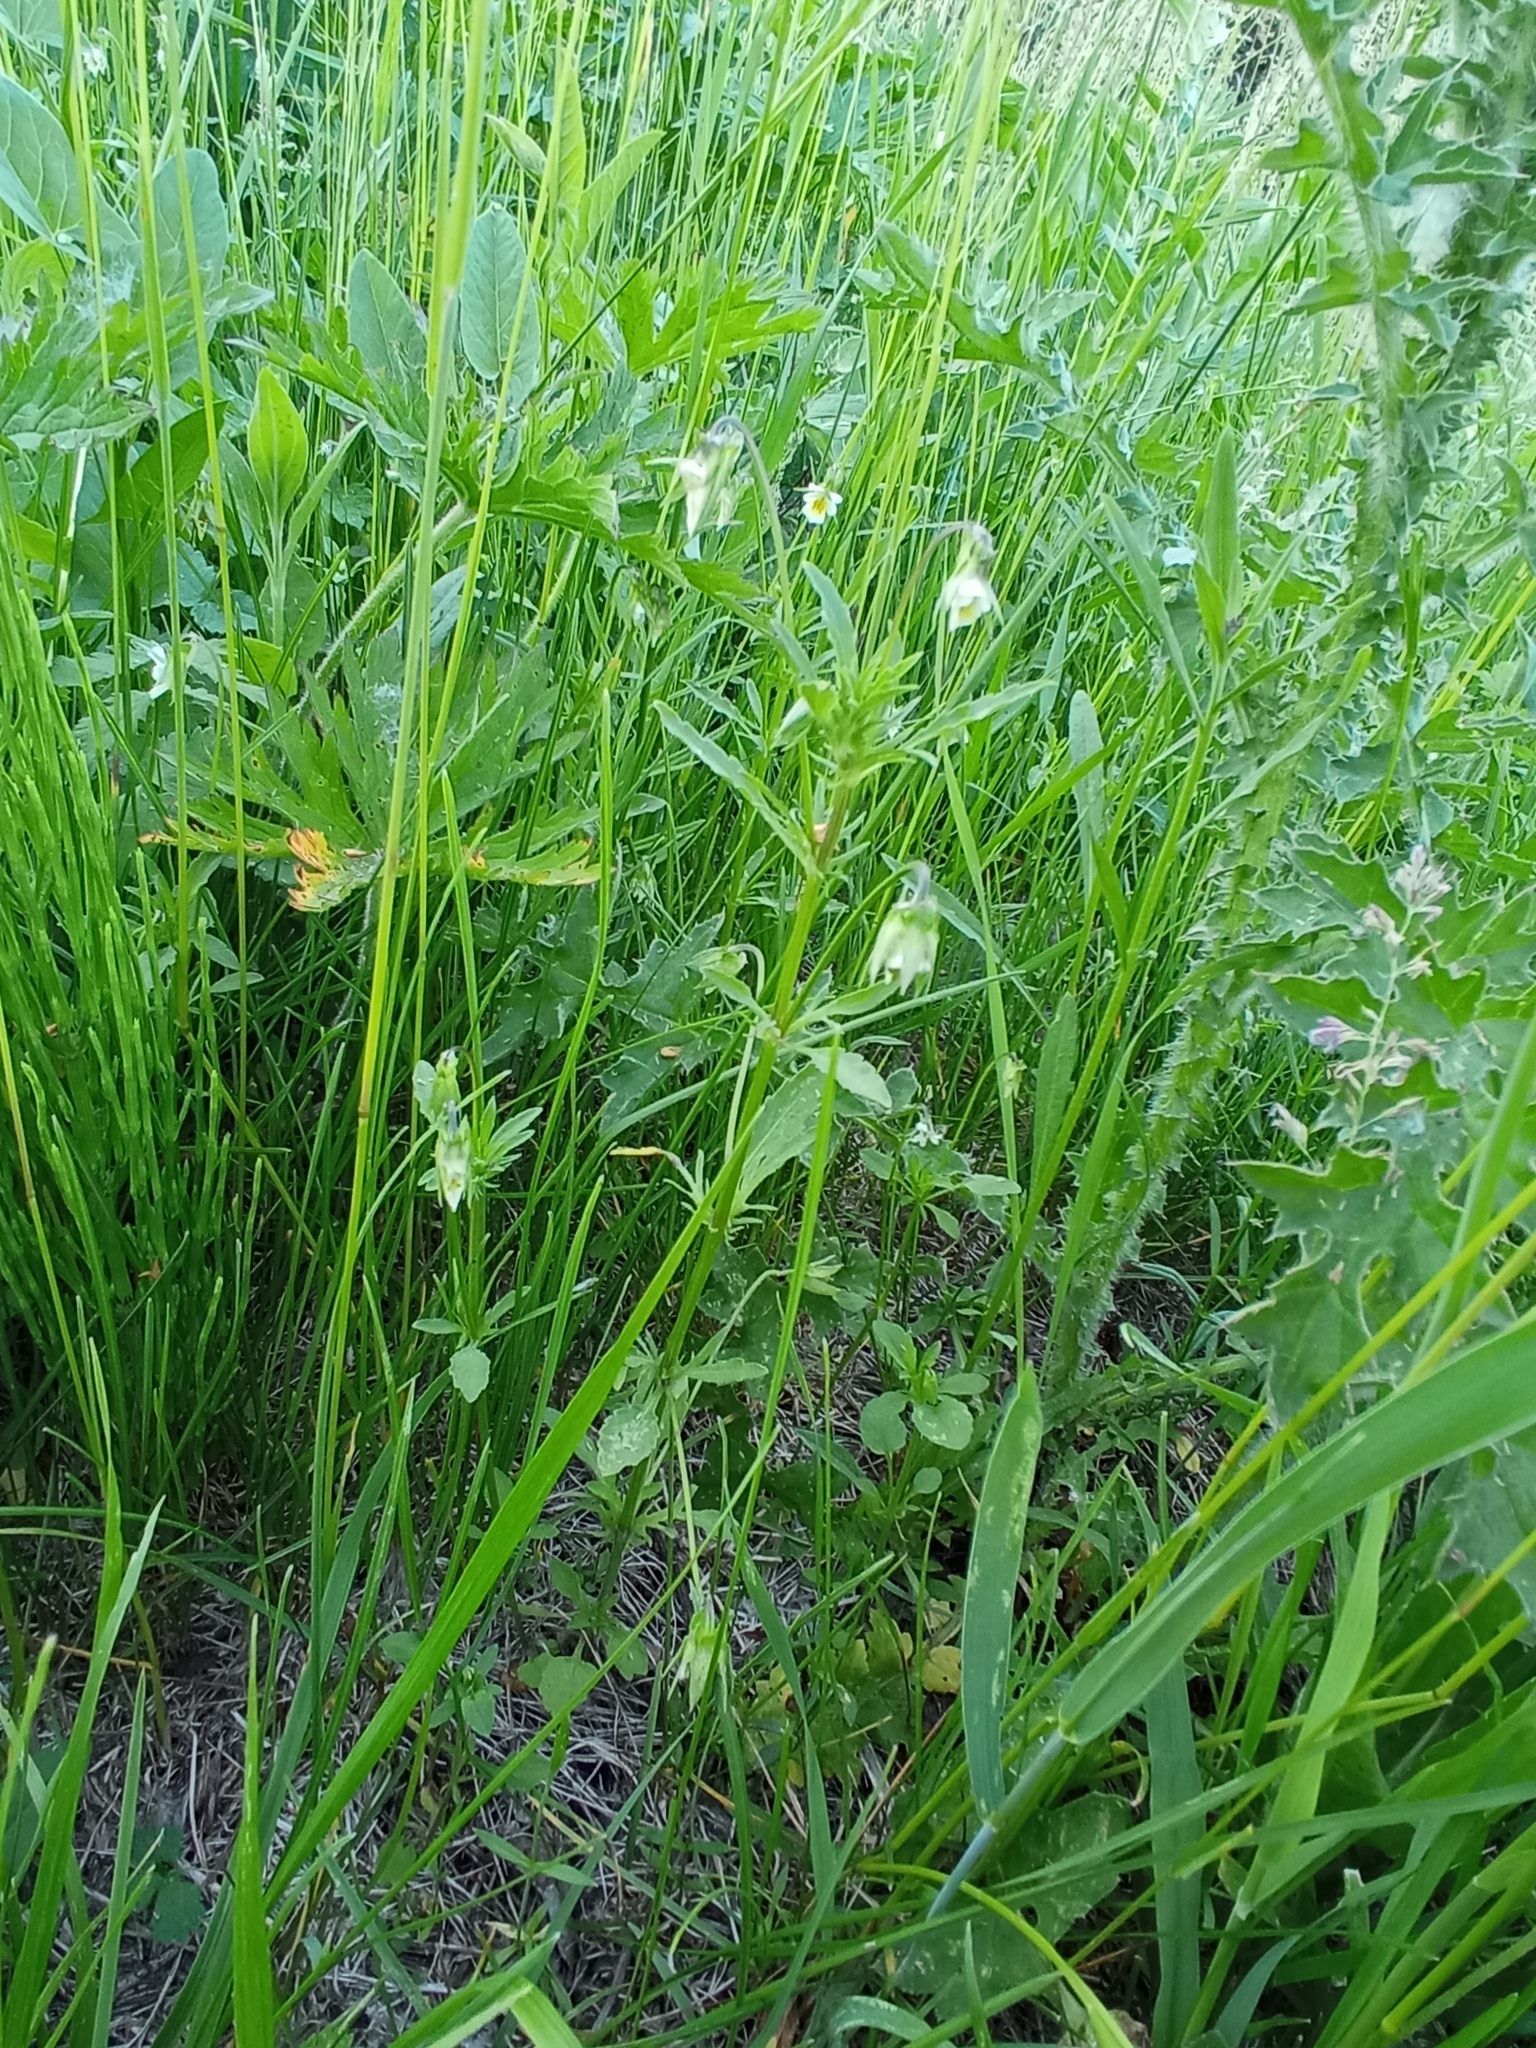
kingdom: Plantae
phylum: Tracheophyta
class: Magnoliopsida
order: Malpighiales
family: Violaceae
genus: Viola
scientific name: Viola arvensis
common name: Field pansy
